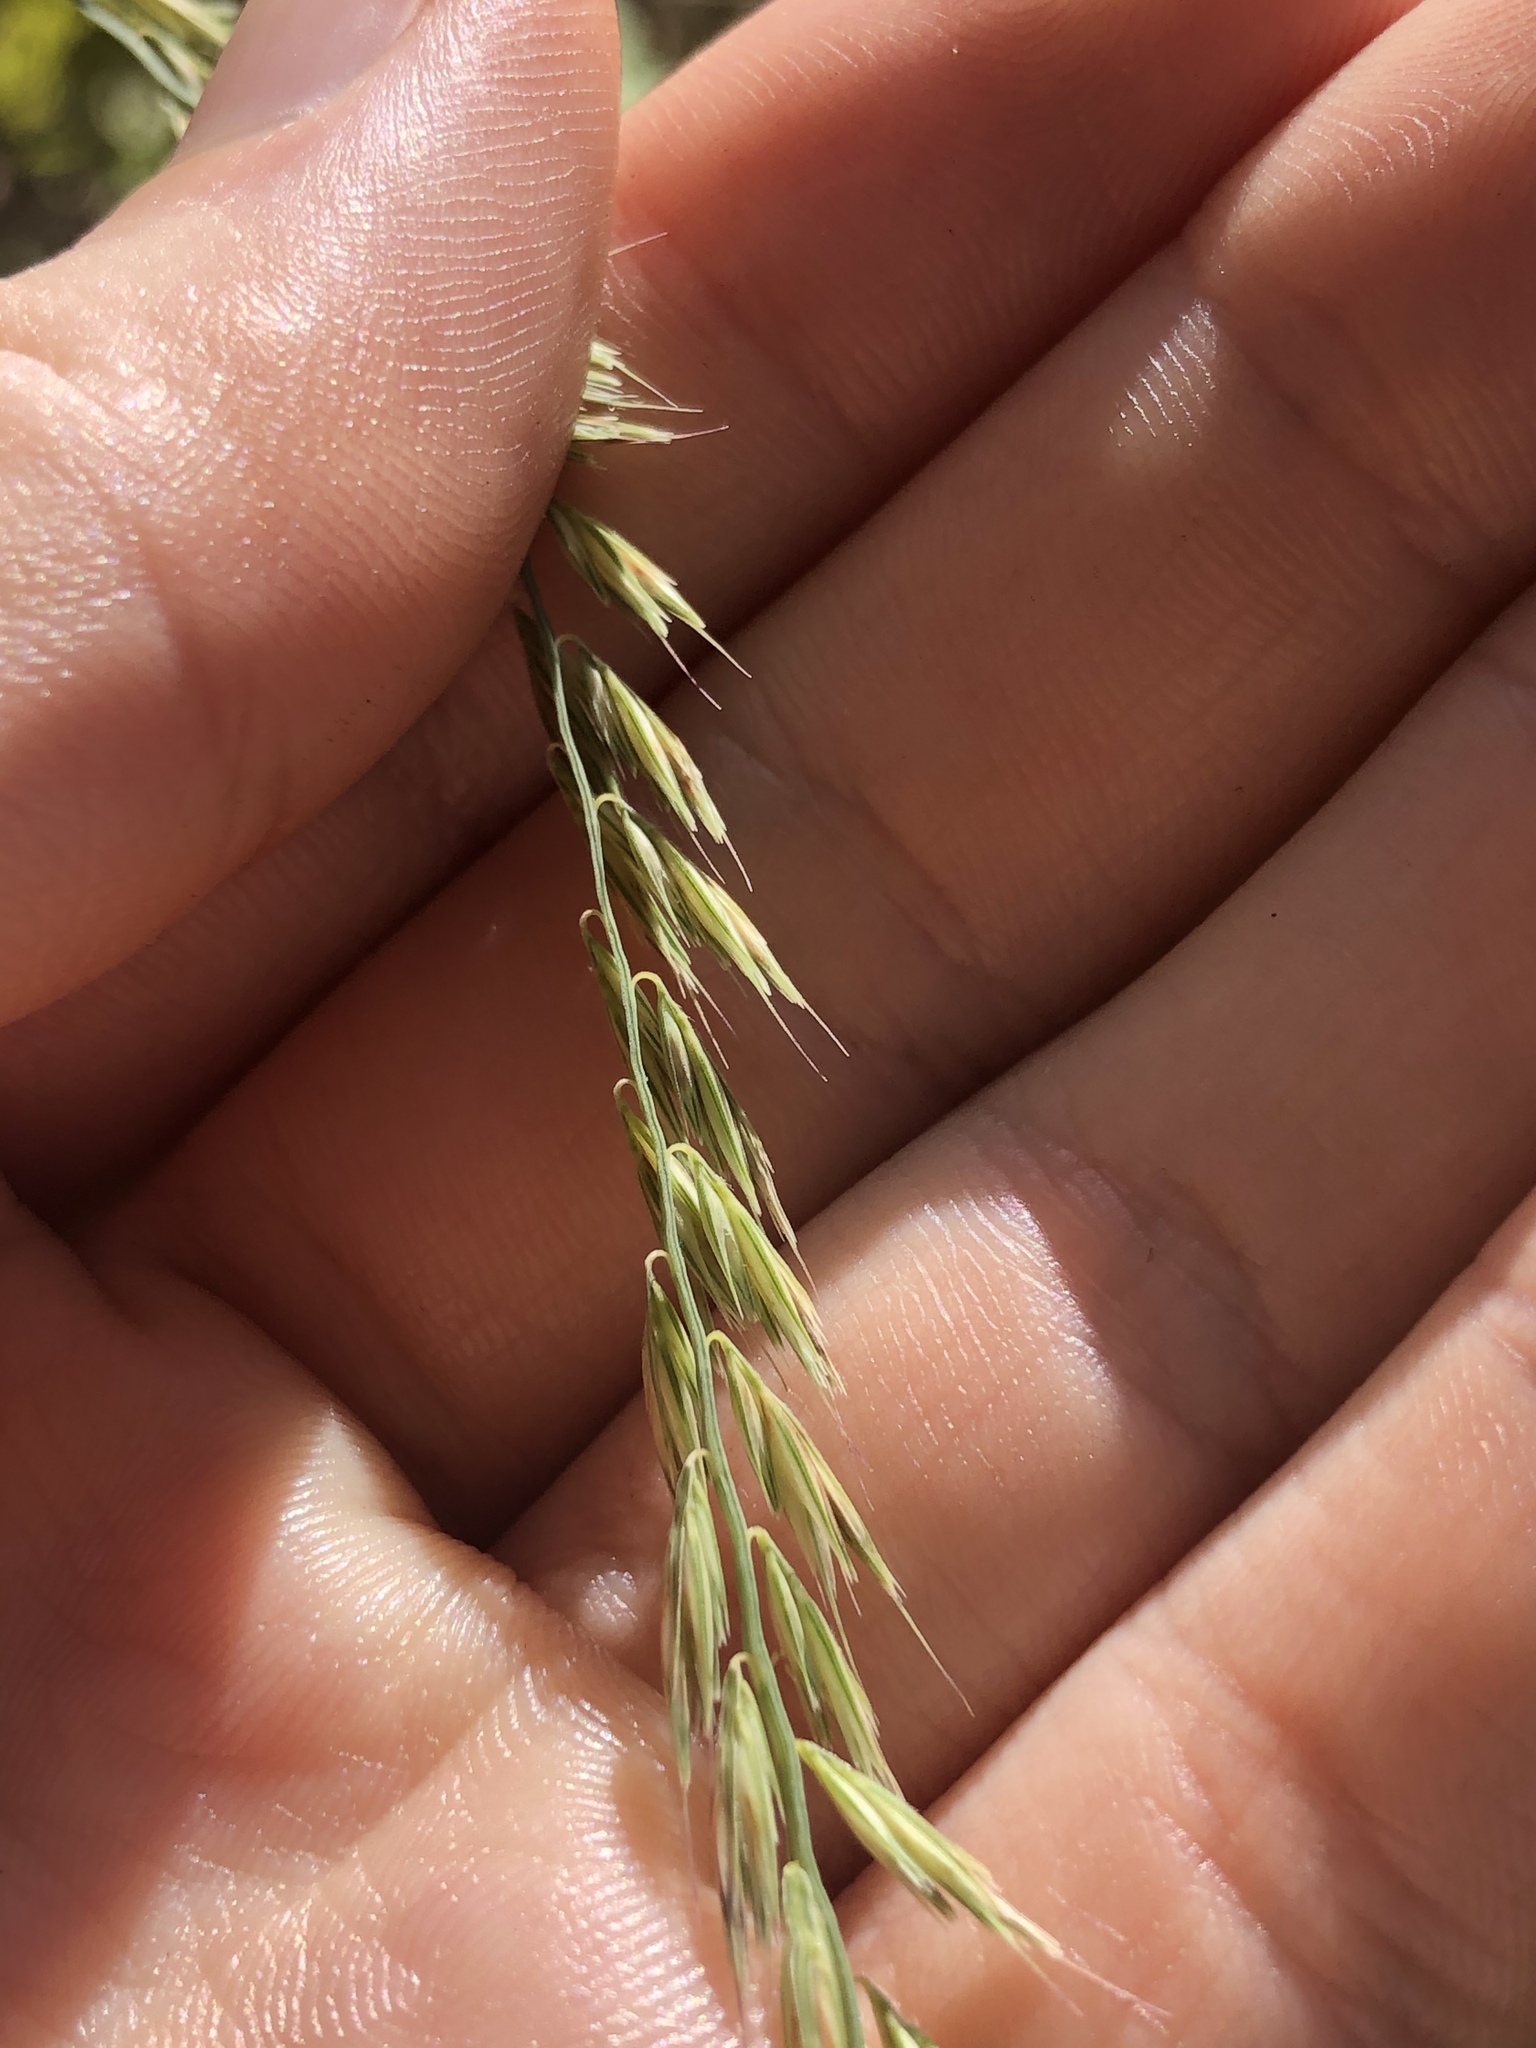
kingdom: Plantae
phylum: Tracheophyta
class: Liliopsida
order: Poales
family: Poaceae
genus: Bouteloua
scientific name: Bouteloua curtipendula
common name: Side-oats grama
